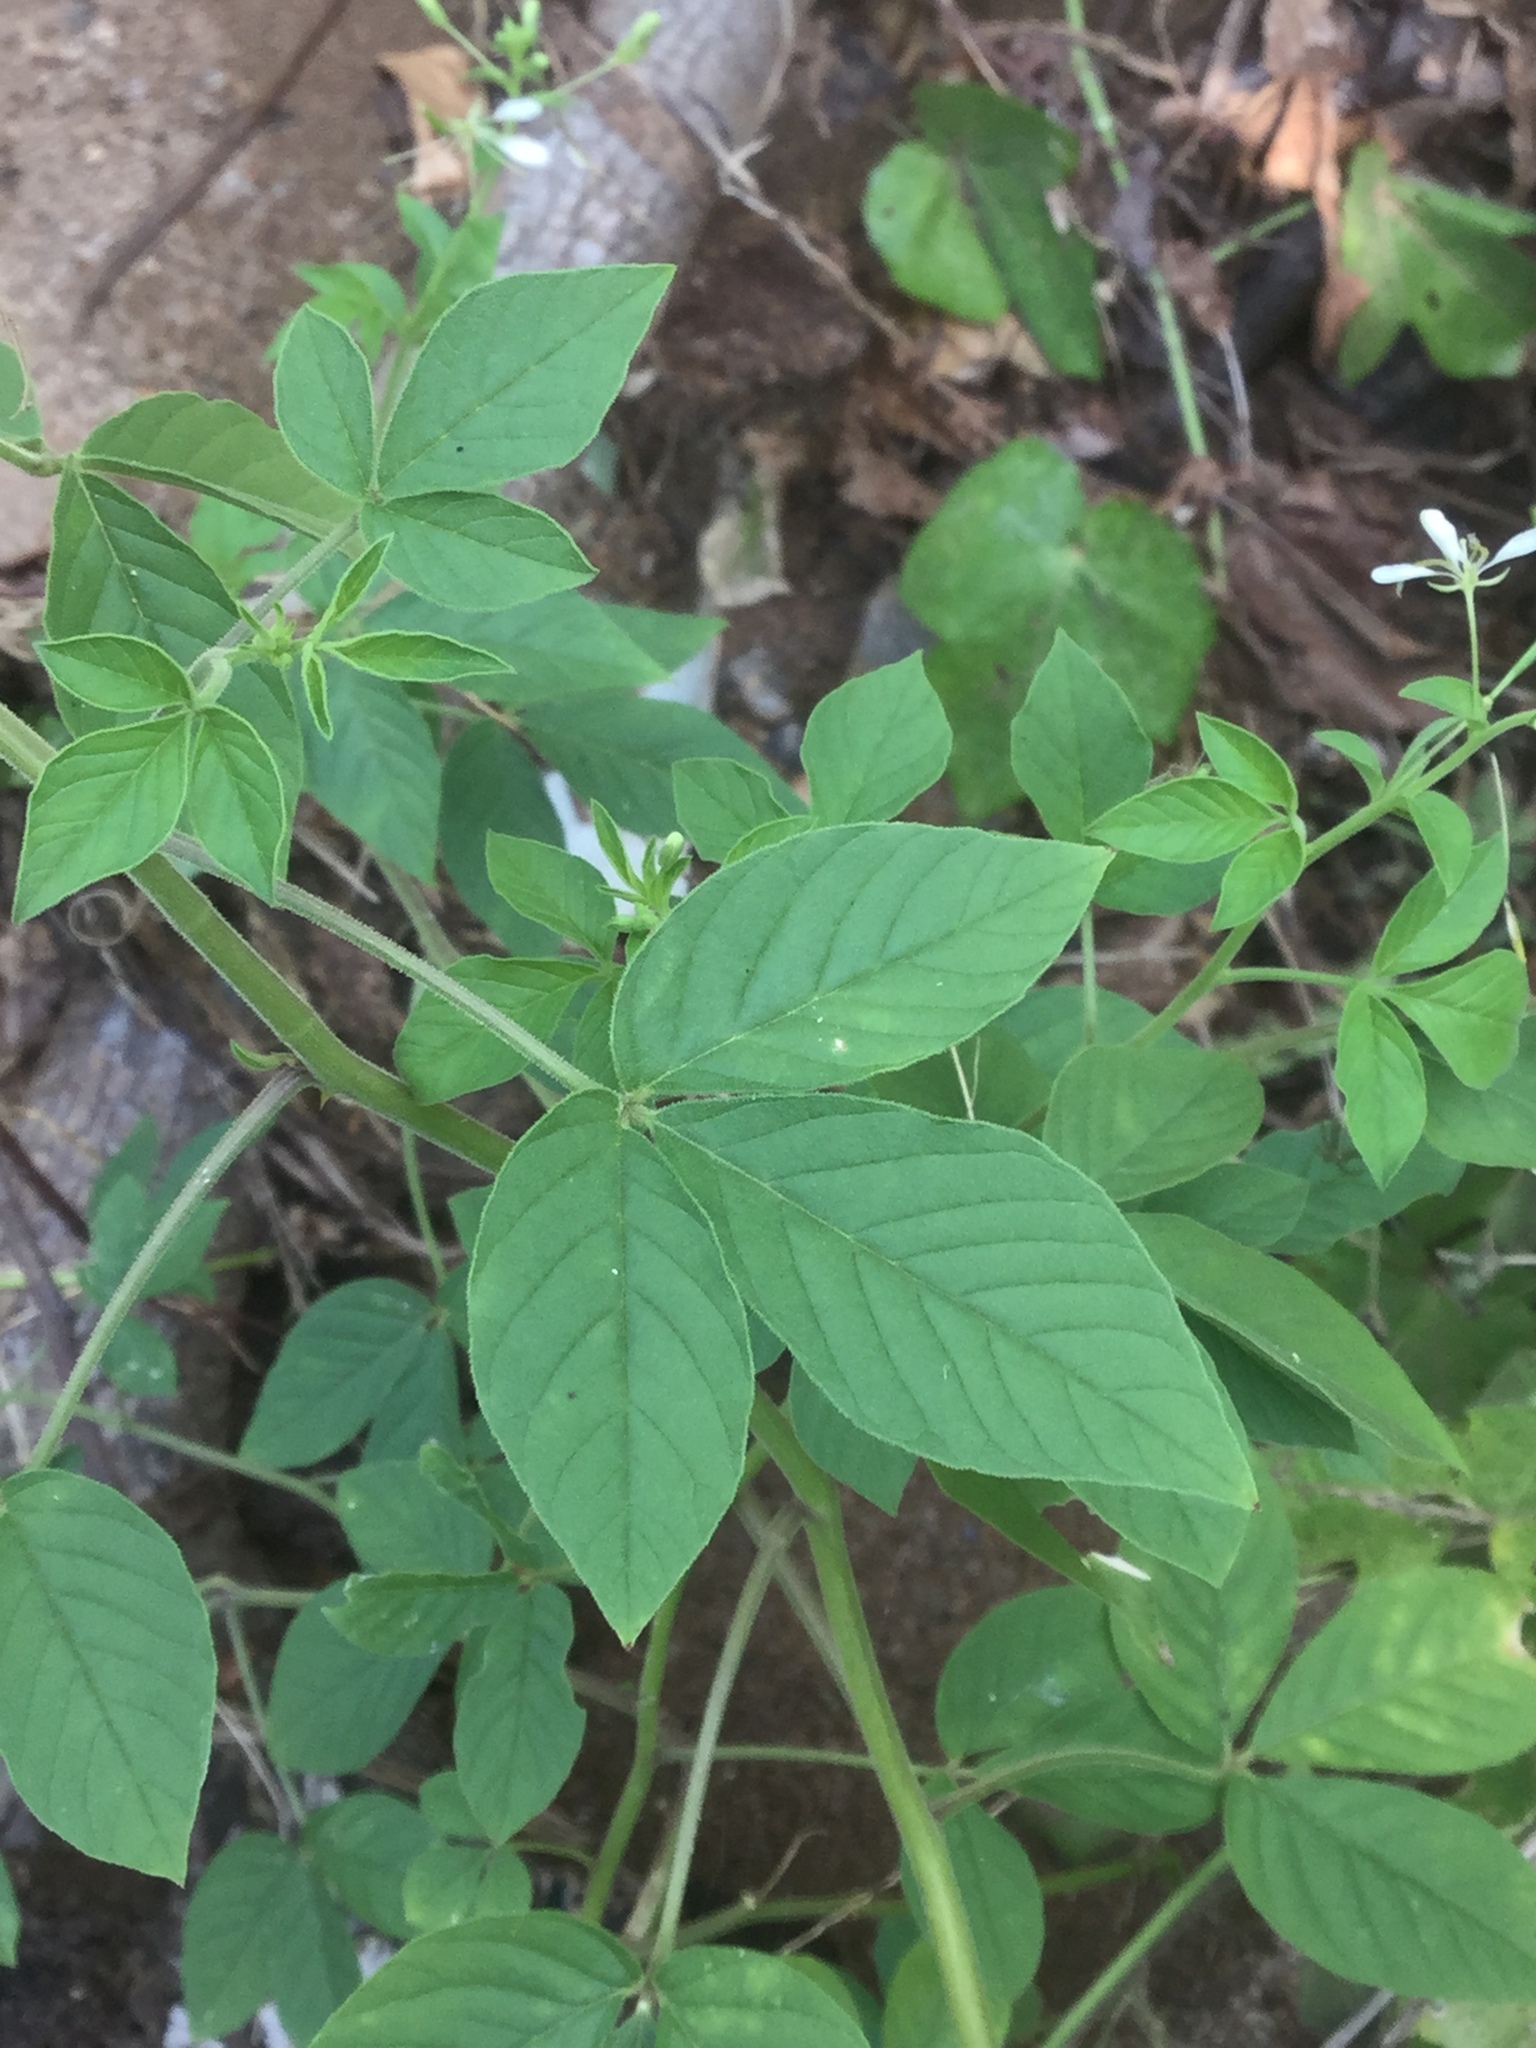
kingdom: Plantae
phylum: Tracheophyta
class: Magnoliopsida
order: Brassicales
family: Cleomaceae
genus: Tarenaya
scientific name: Tarenaya aculeata
